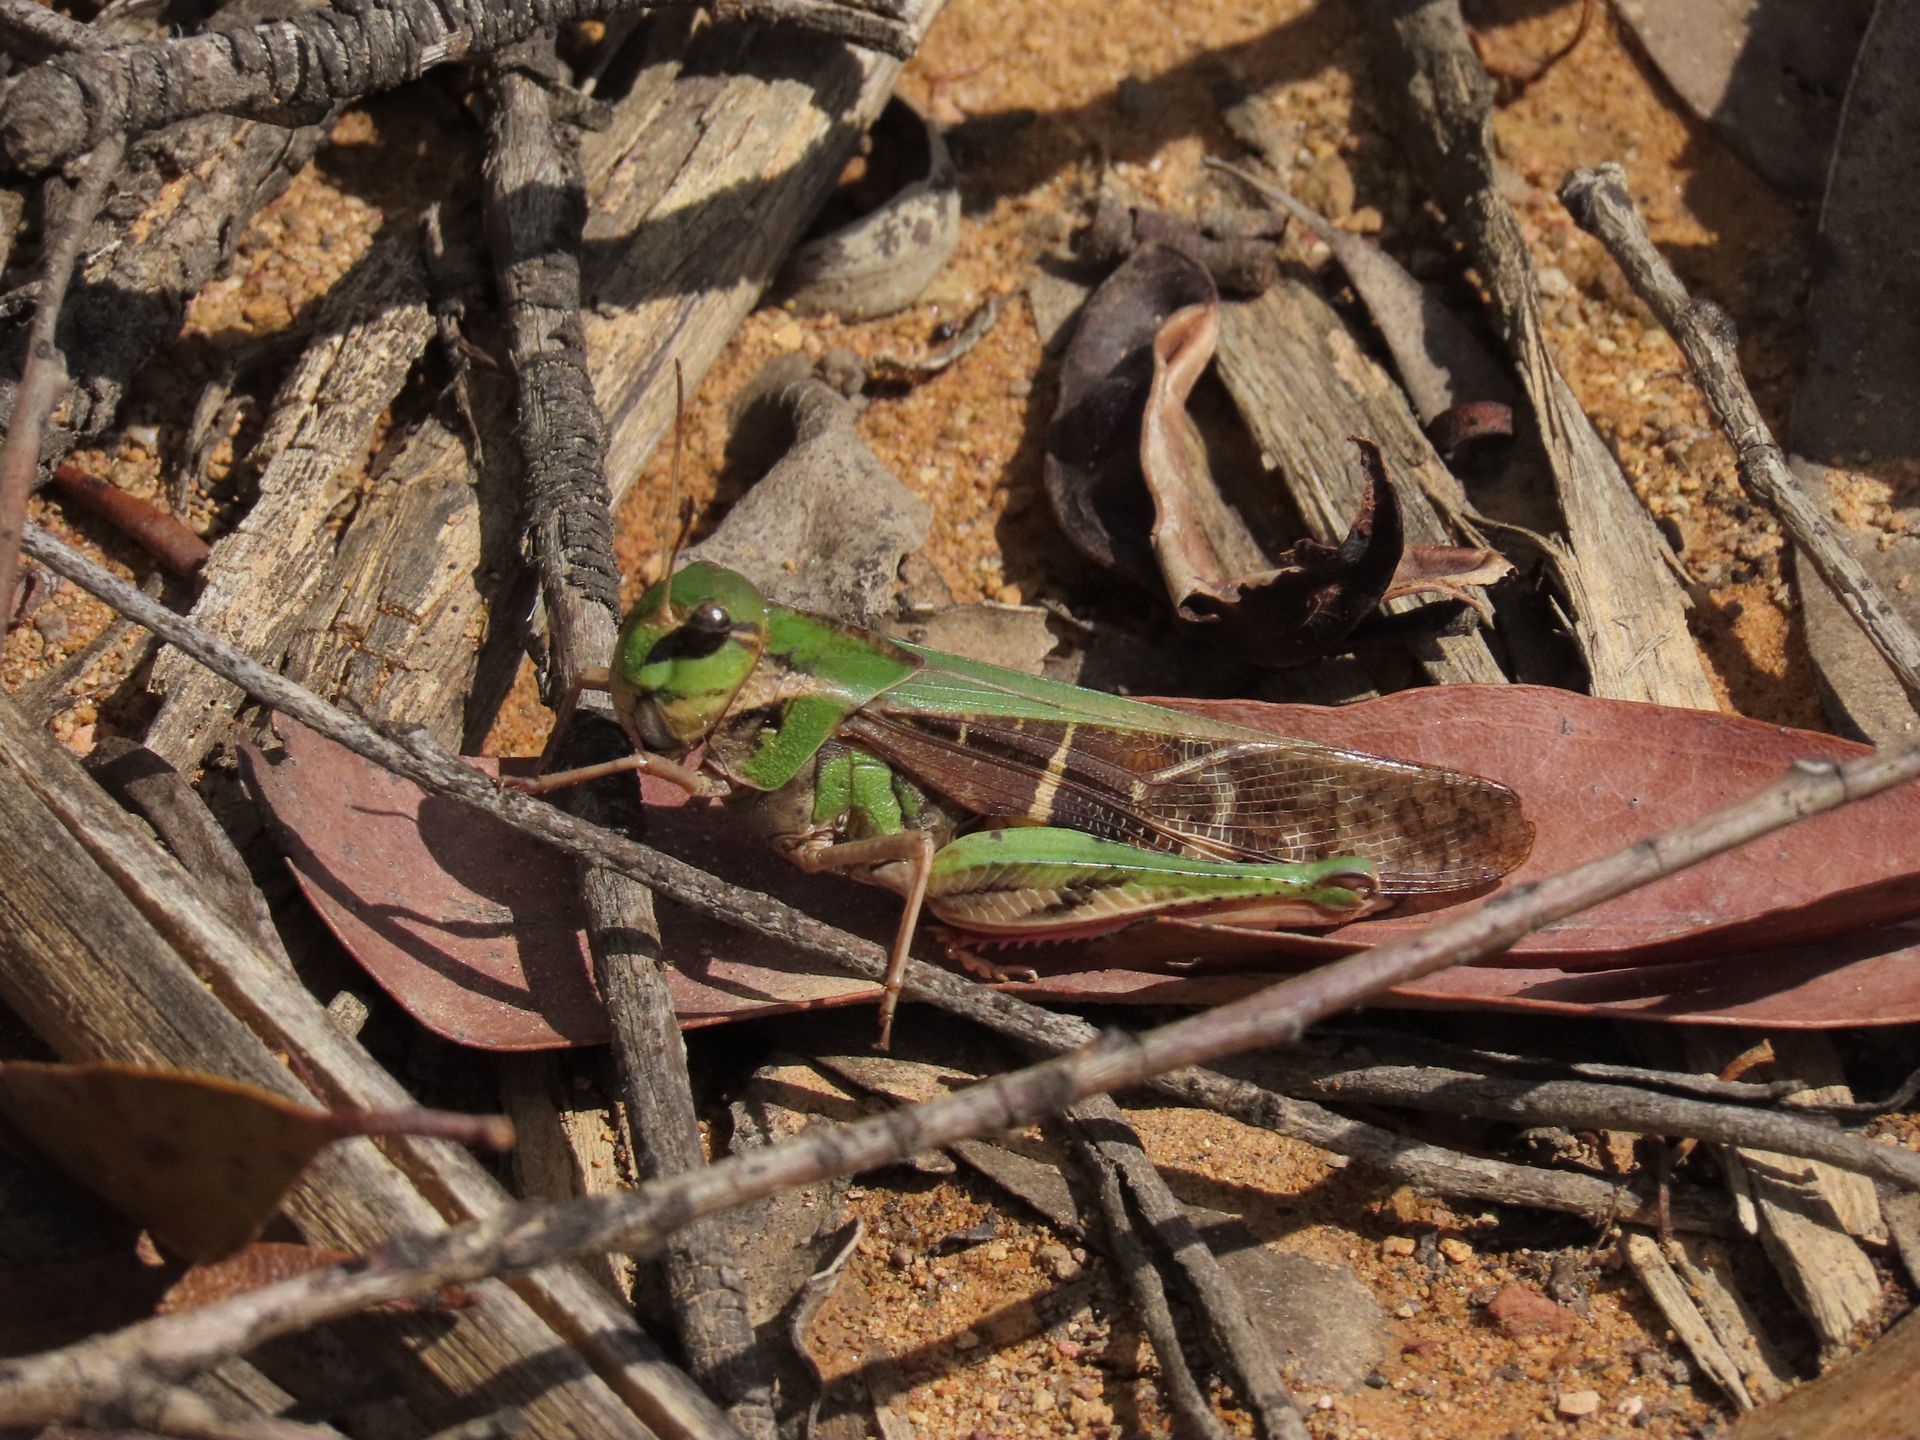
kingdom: Animalia
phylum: Arthropoda
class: Insecta
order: Orthoptera
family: Acrididae
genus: Gastrimargus
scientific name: Gastrimargus musicus
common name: Yellow-winged locust
